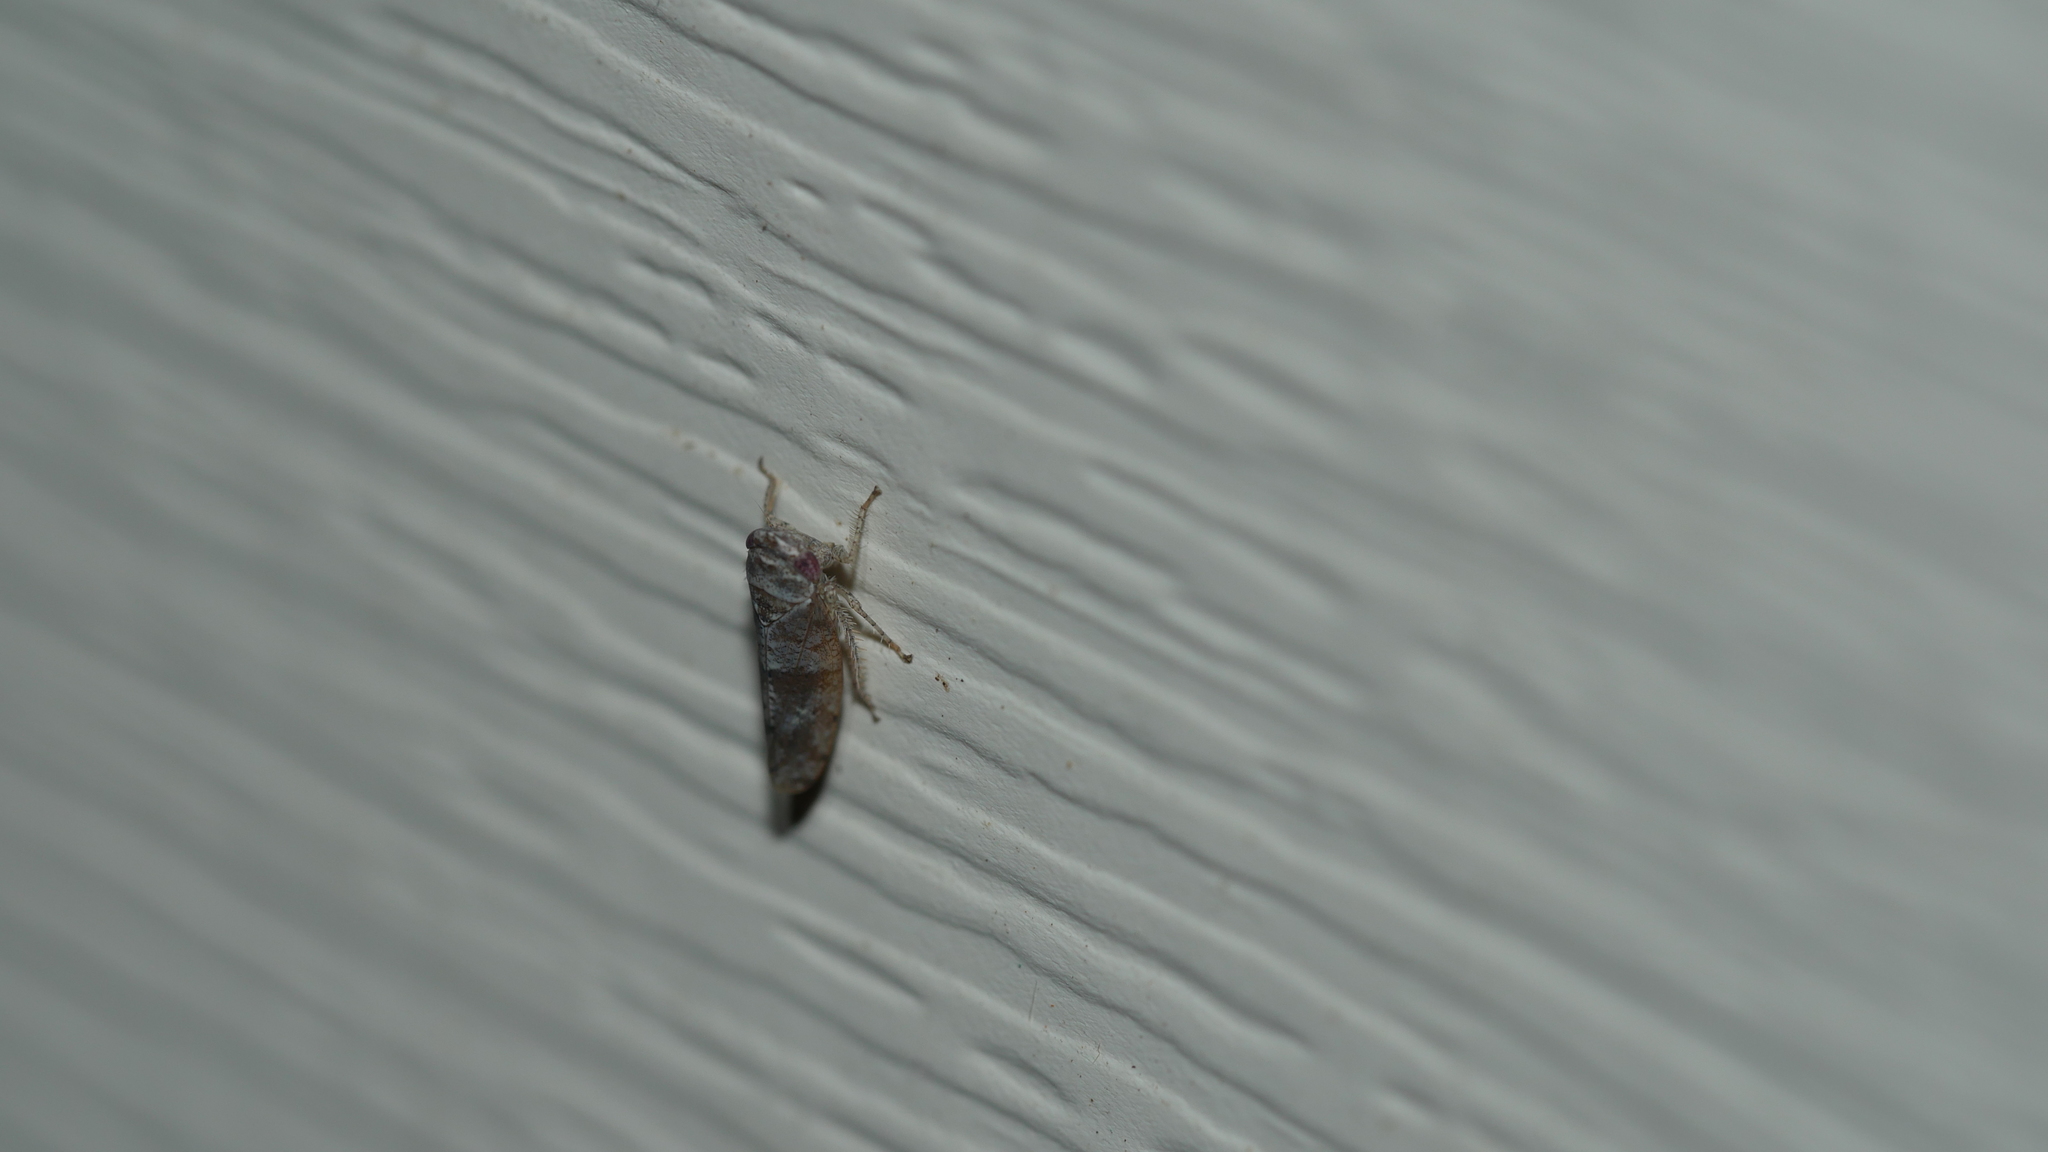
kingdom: Animalia
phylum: Arthropoda
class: Insecta
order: Hemiptera
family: Cicadellidae
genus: Pendarus
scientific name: Pendarus
